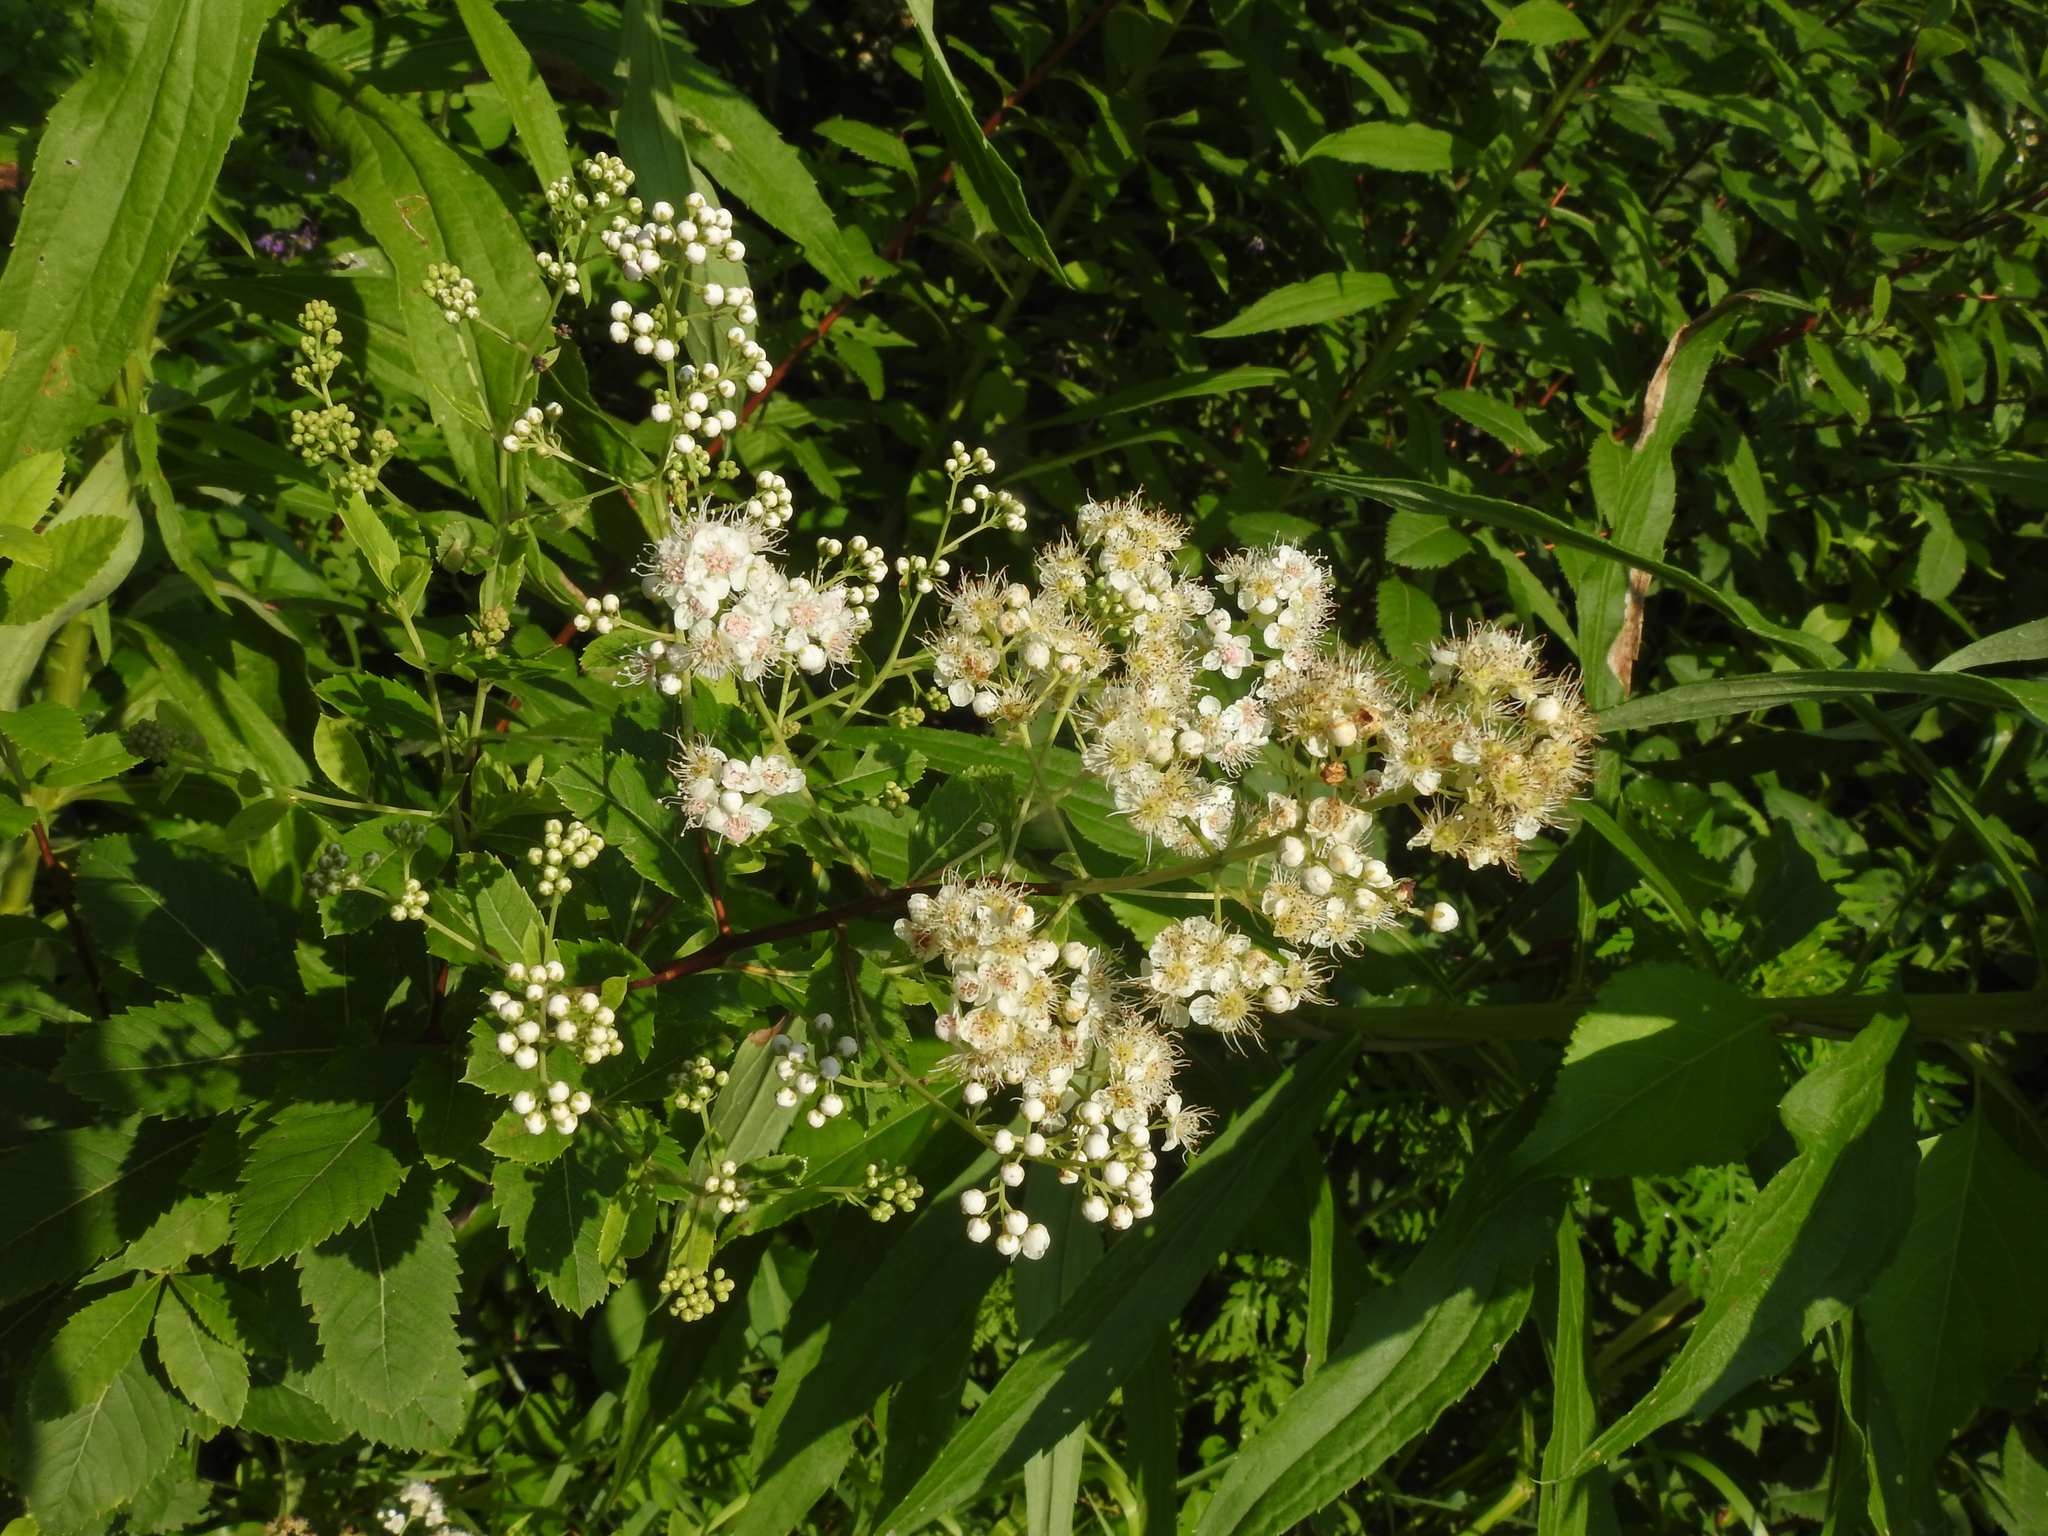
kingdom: Plantae
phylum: Tracheophyta
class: Magnoliopsida
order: Rosales
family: Rosaceae
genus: Spiraea
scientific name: Spiraea alba
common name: Pale bridewort
